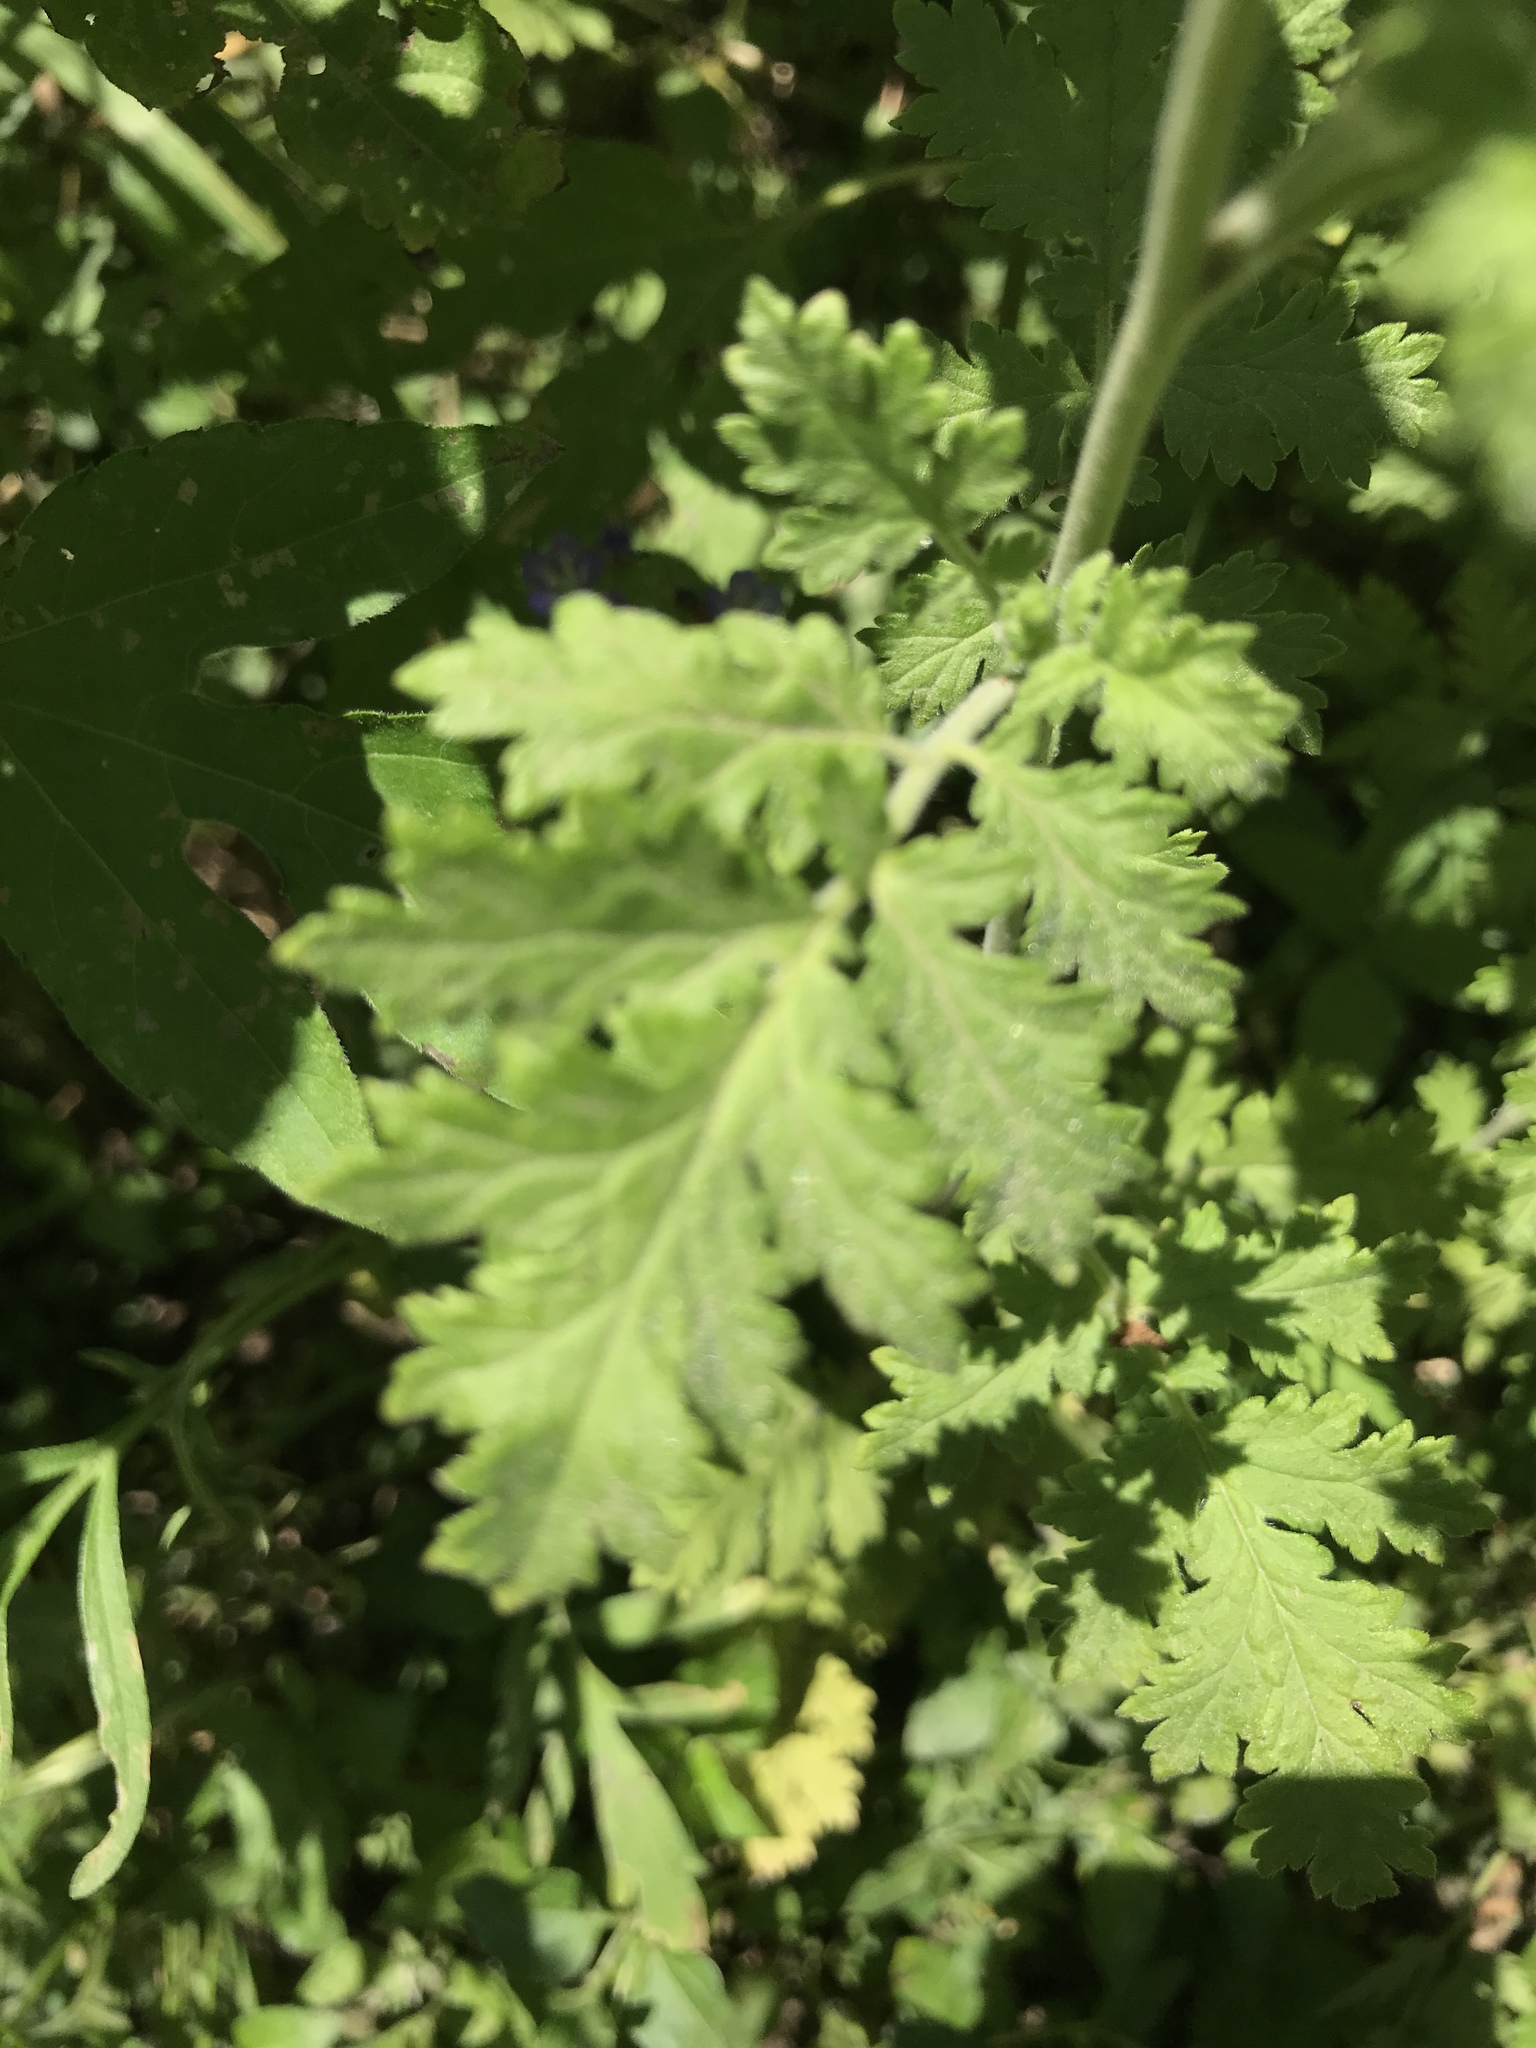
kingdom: Plantae
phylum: Tracheophyta
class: Magnoliopsida
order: Boraginales
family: Hydrophyllaceae
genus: Phacelia
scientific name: Phacelia congesta
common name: Blue curls
